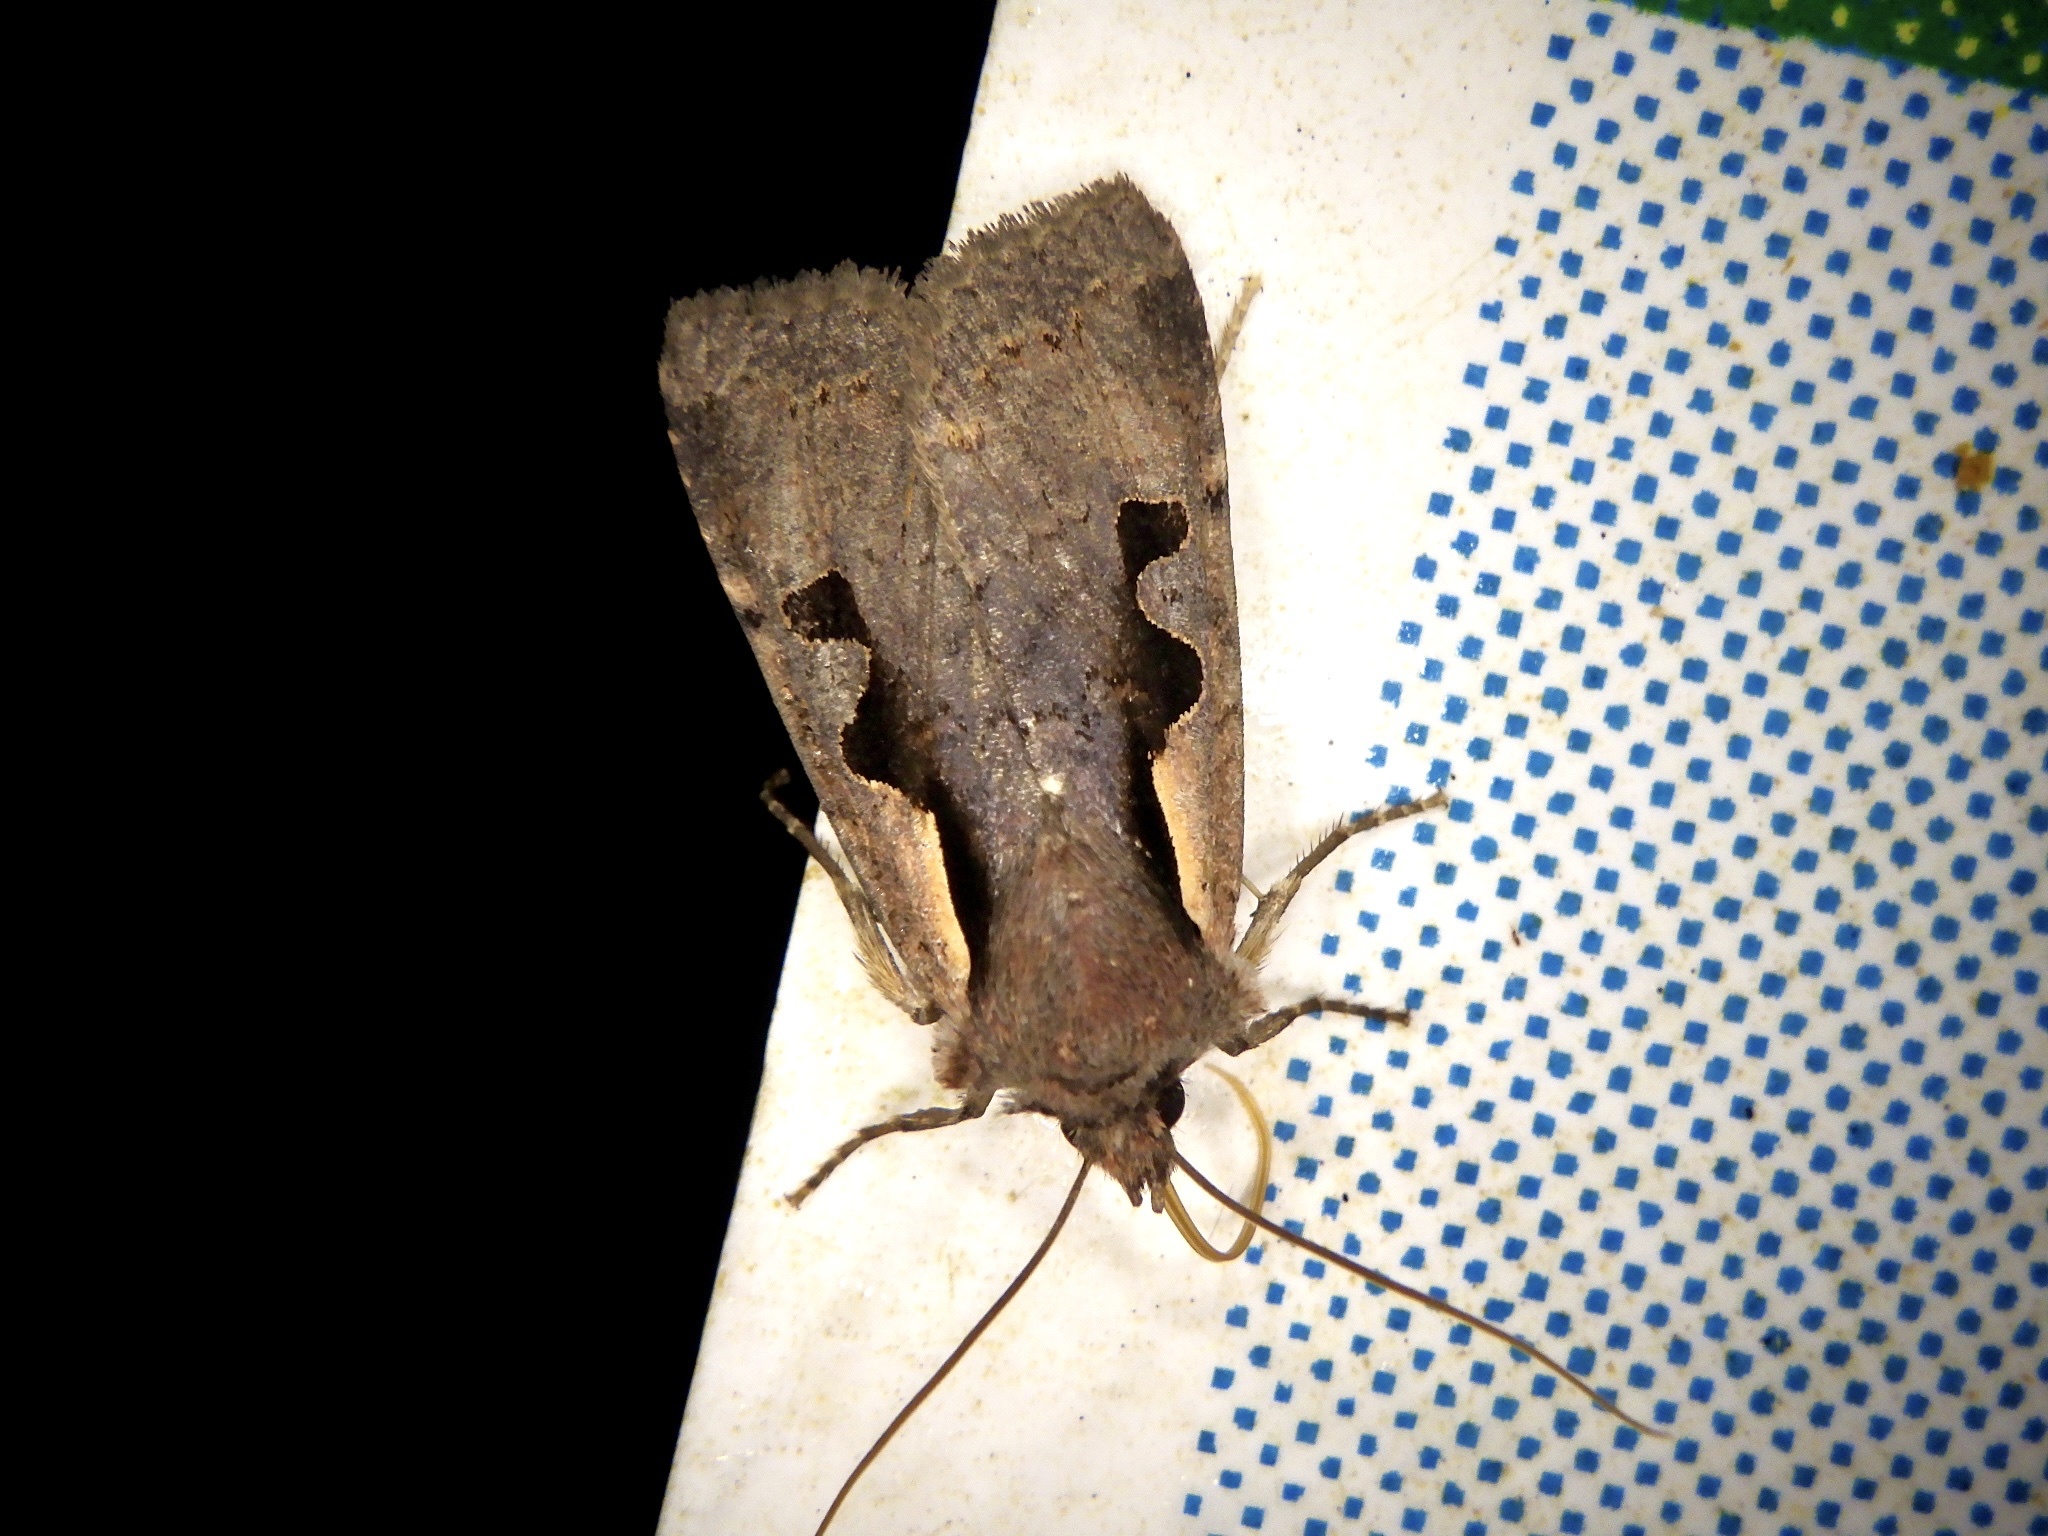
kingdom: Animalia
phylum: Arthropoda
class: Insecta
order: Lepidoptera
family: Noctuidae
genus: Sugitania
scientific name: Sugitania lepida
